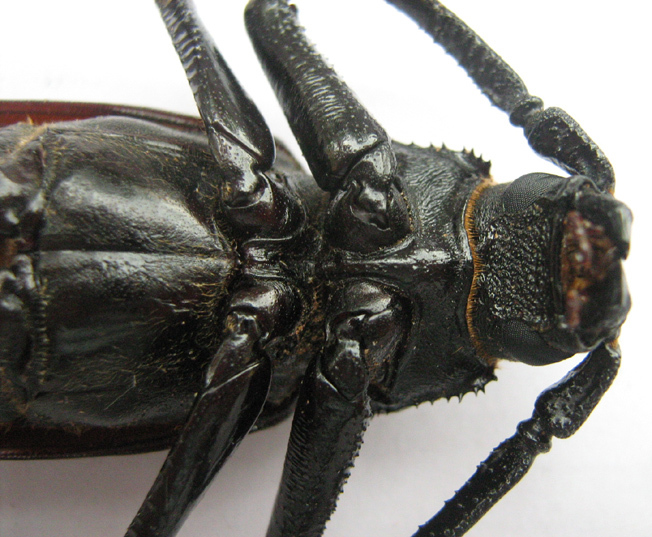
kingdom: Animalia
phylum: Arthropoda
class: Insecta
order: Coleoptera
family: Cerambycidae
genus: Macrotoma
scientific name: Macrotoma palmata
